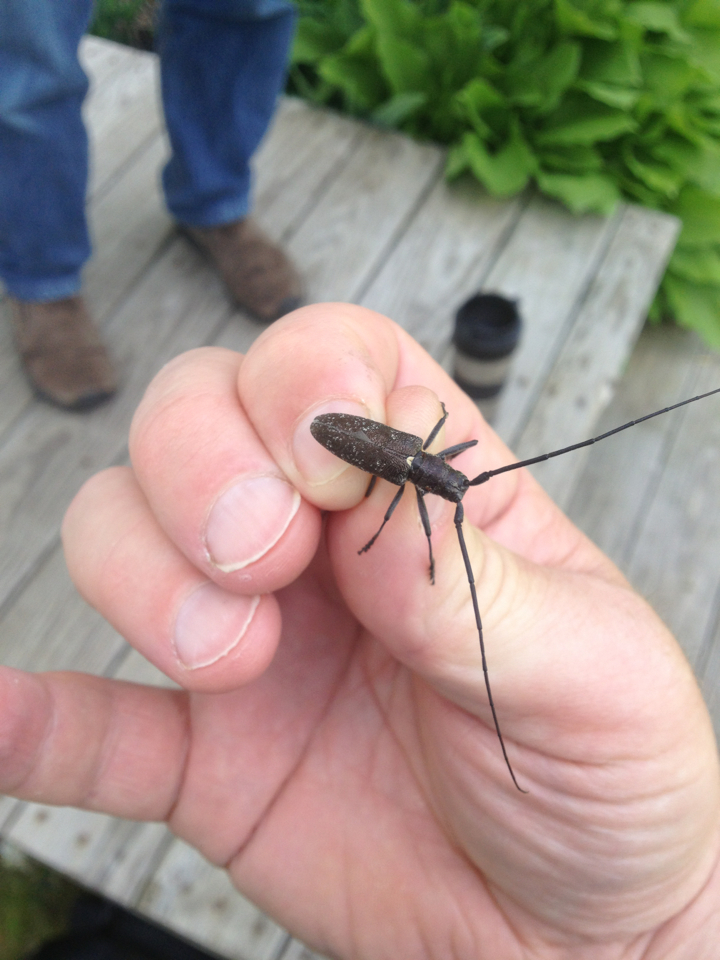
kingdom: Animalia
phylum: Arthropoda
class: Insecta
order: Coleoptera
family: Cerambycidae
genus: Monochamus
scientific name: Monochamus scutellatus
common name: White-spotted sawyer beetle
